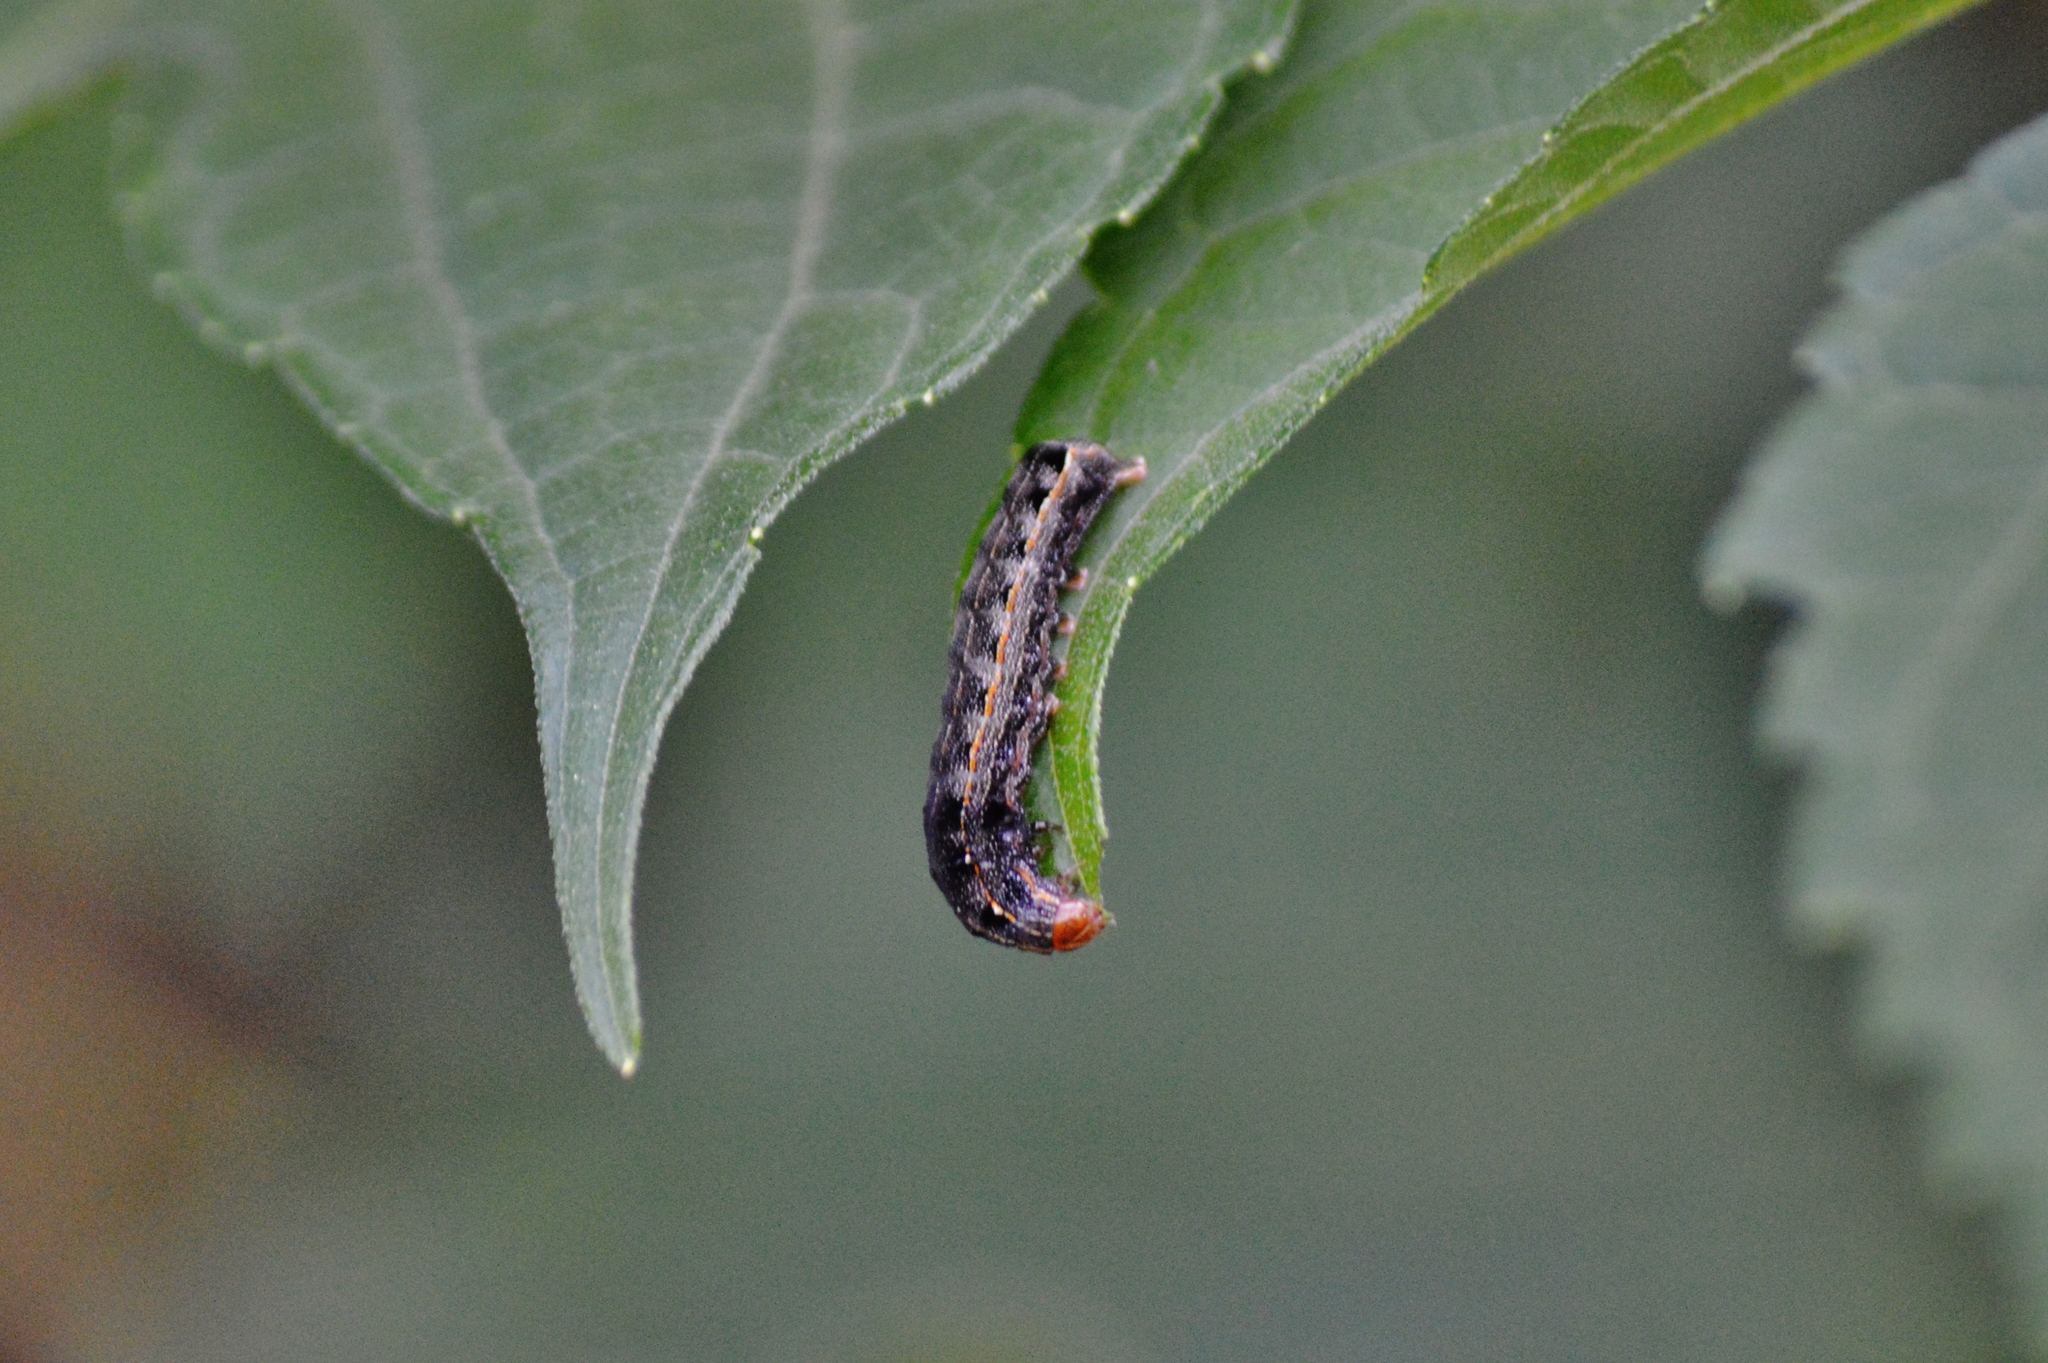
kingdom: Animalia
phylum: Arthropoda
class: Insecta
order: Lepidoptera
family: Noctuidae
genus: Spodoptera
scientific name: Spodoptera cosmioides
